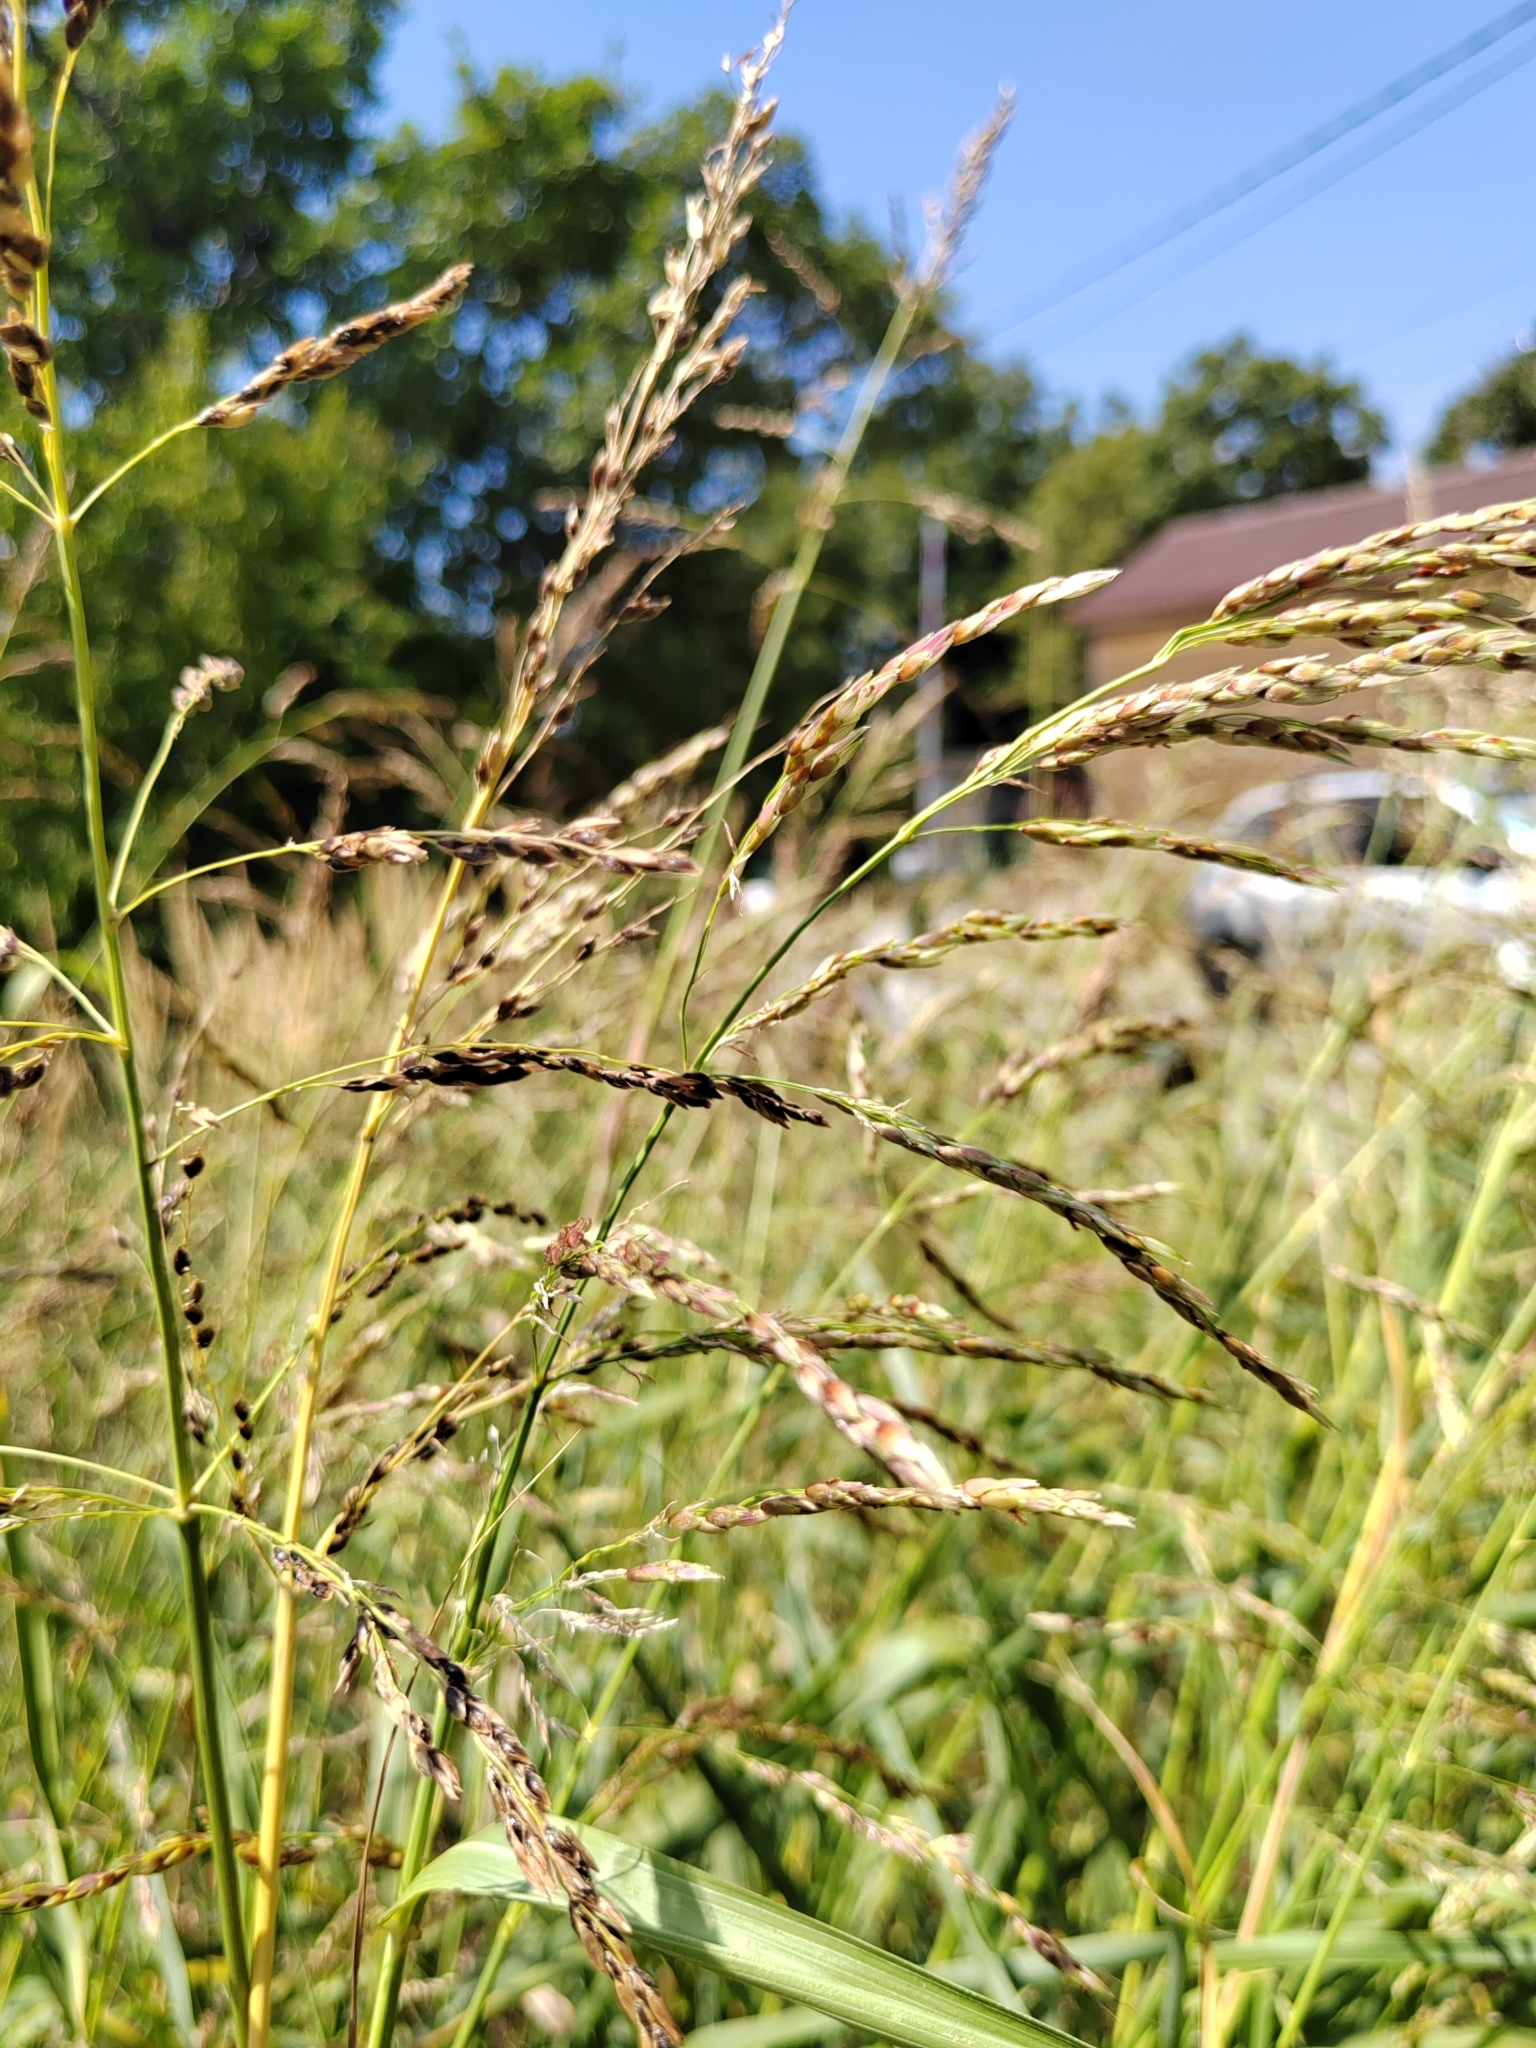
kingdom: Plantae
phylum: Tracheophyta
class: Liliopsida
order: Poales
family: Poaceae
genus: Sorghum
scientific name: Sorghum halepense
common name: Johnson-grass
